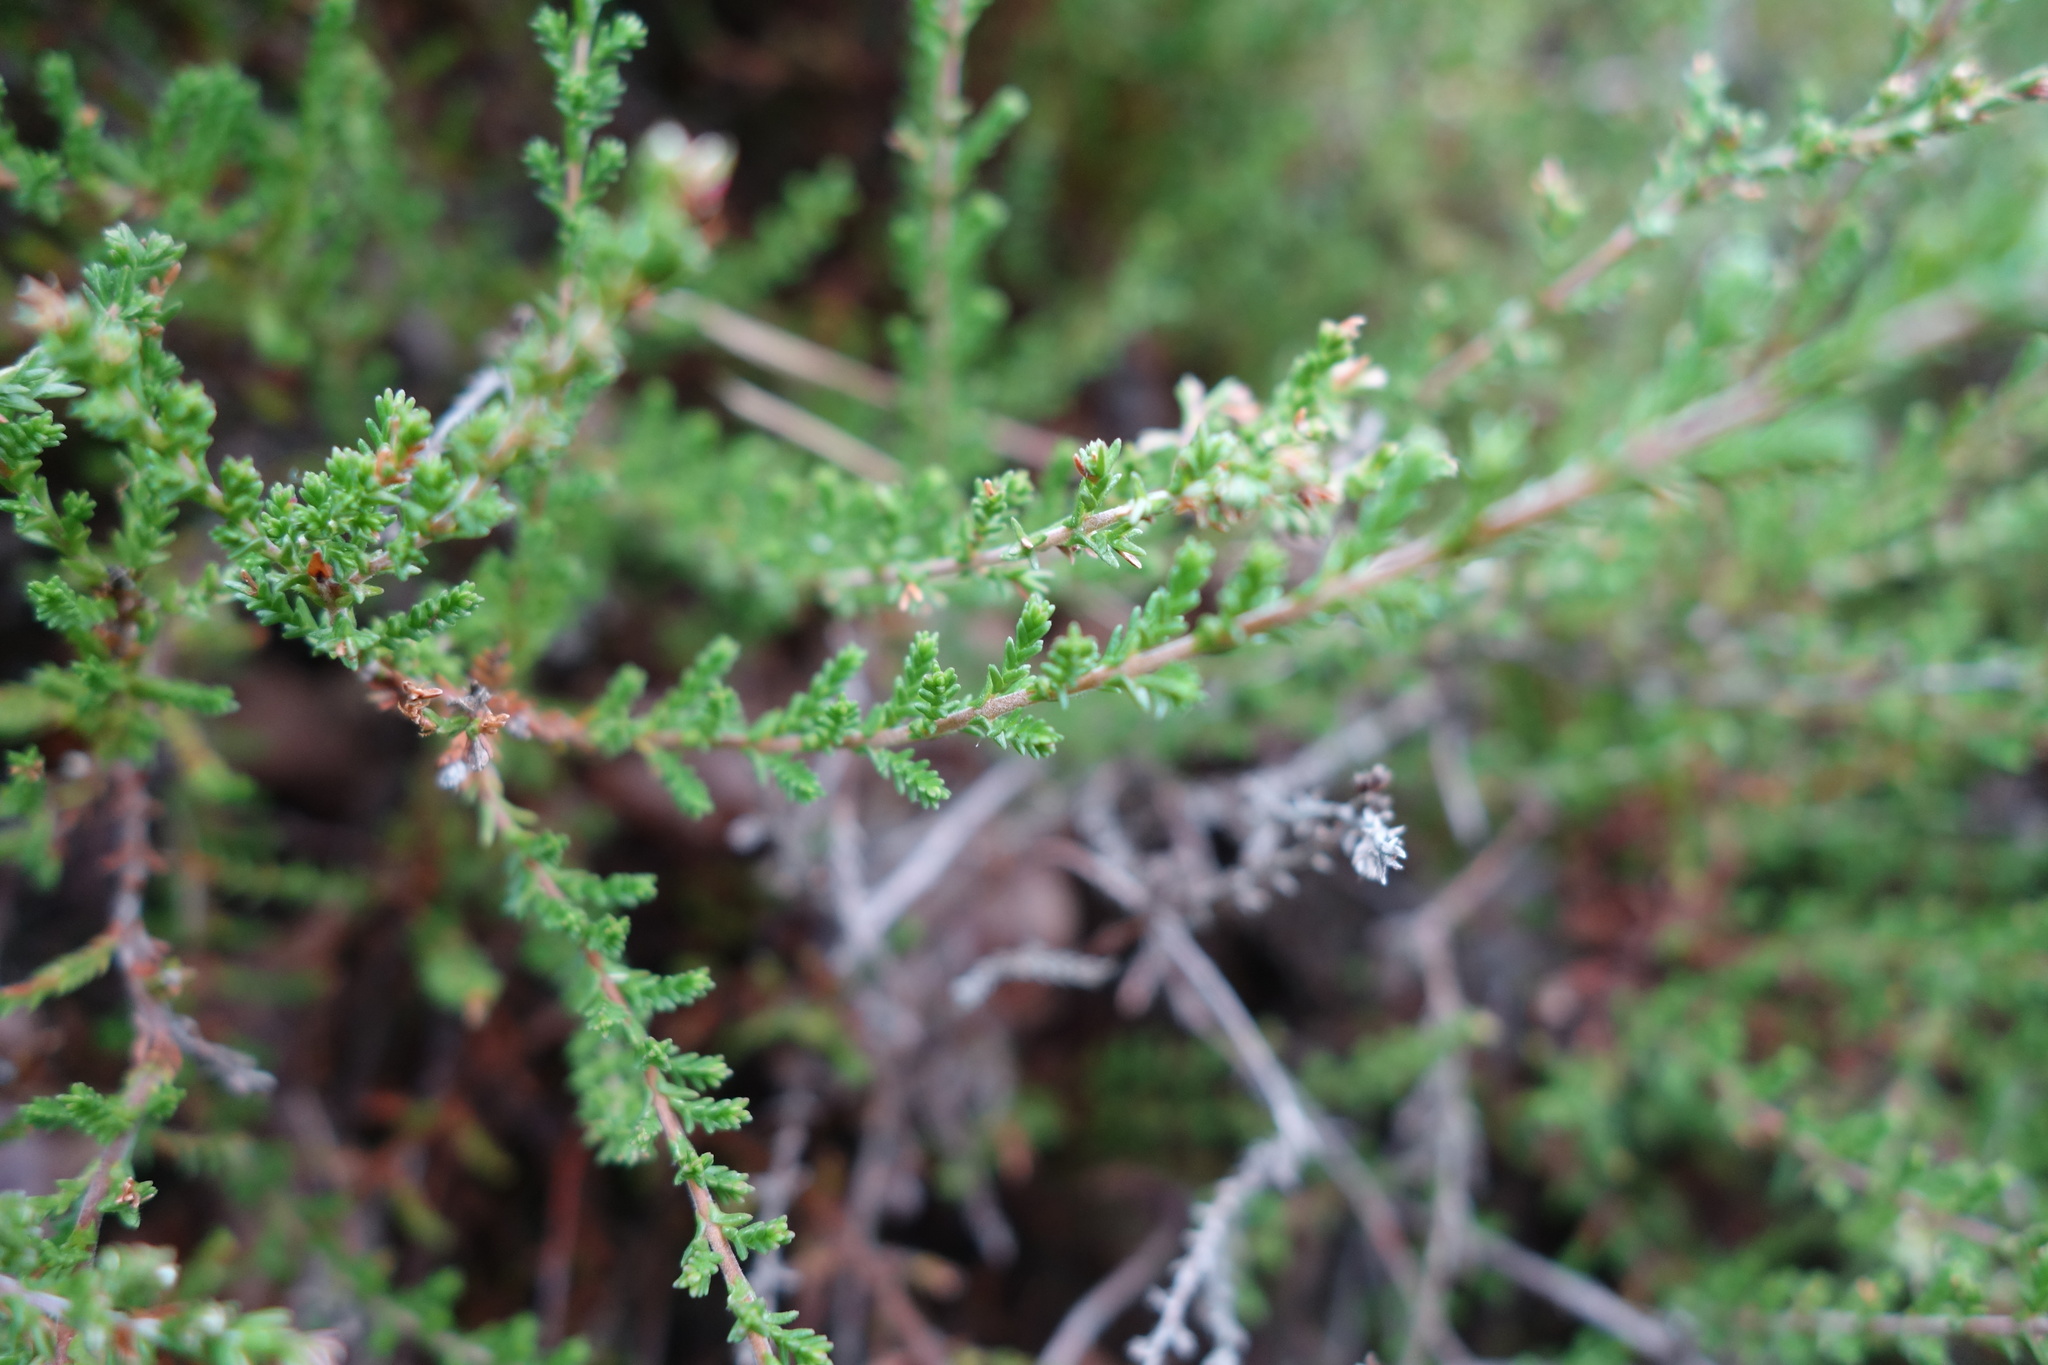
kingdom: Plantae
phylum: Tracheophyta
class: Magnoliopsida
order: Ericales
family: Ericaceae
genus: Calluna
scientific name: Calluna vulgaris
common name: Heather
